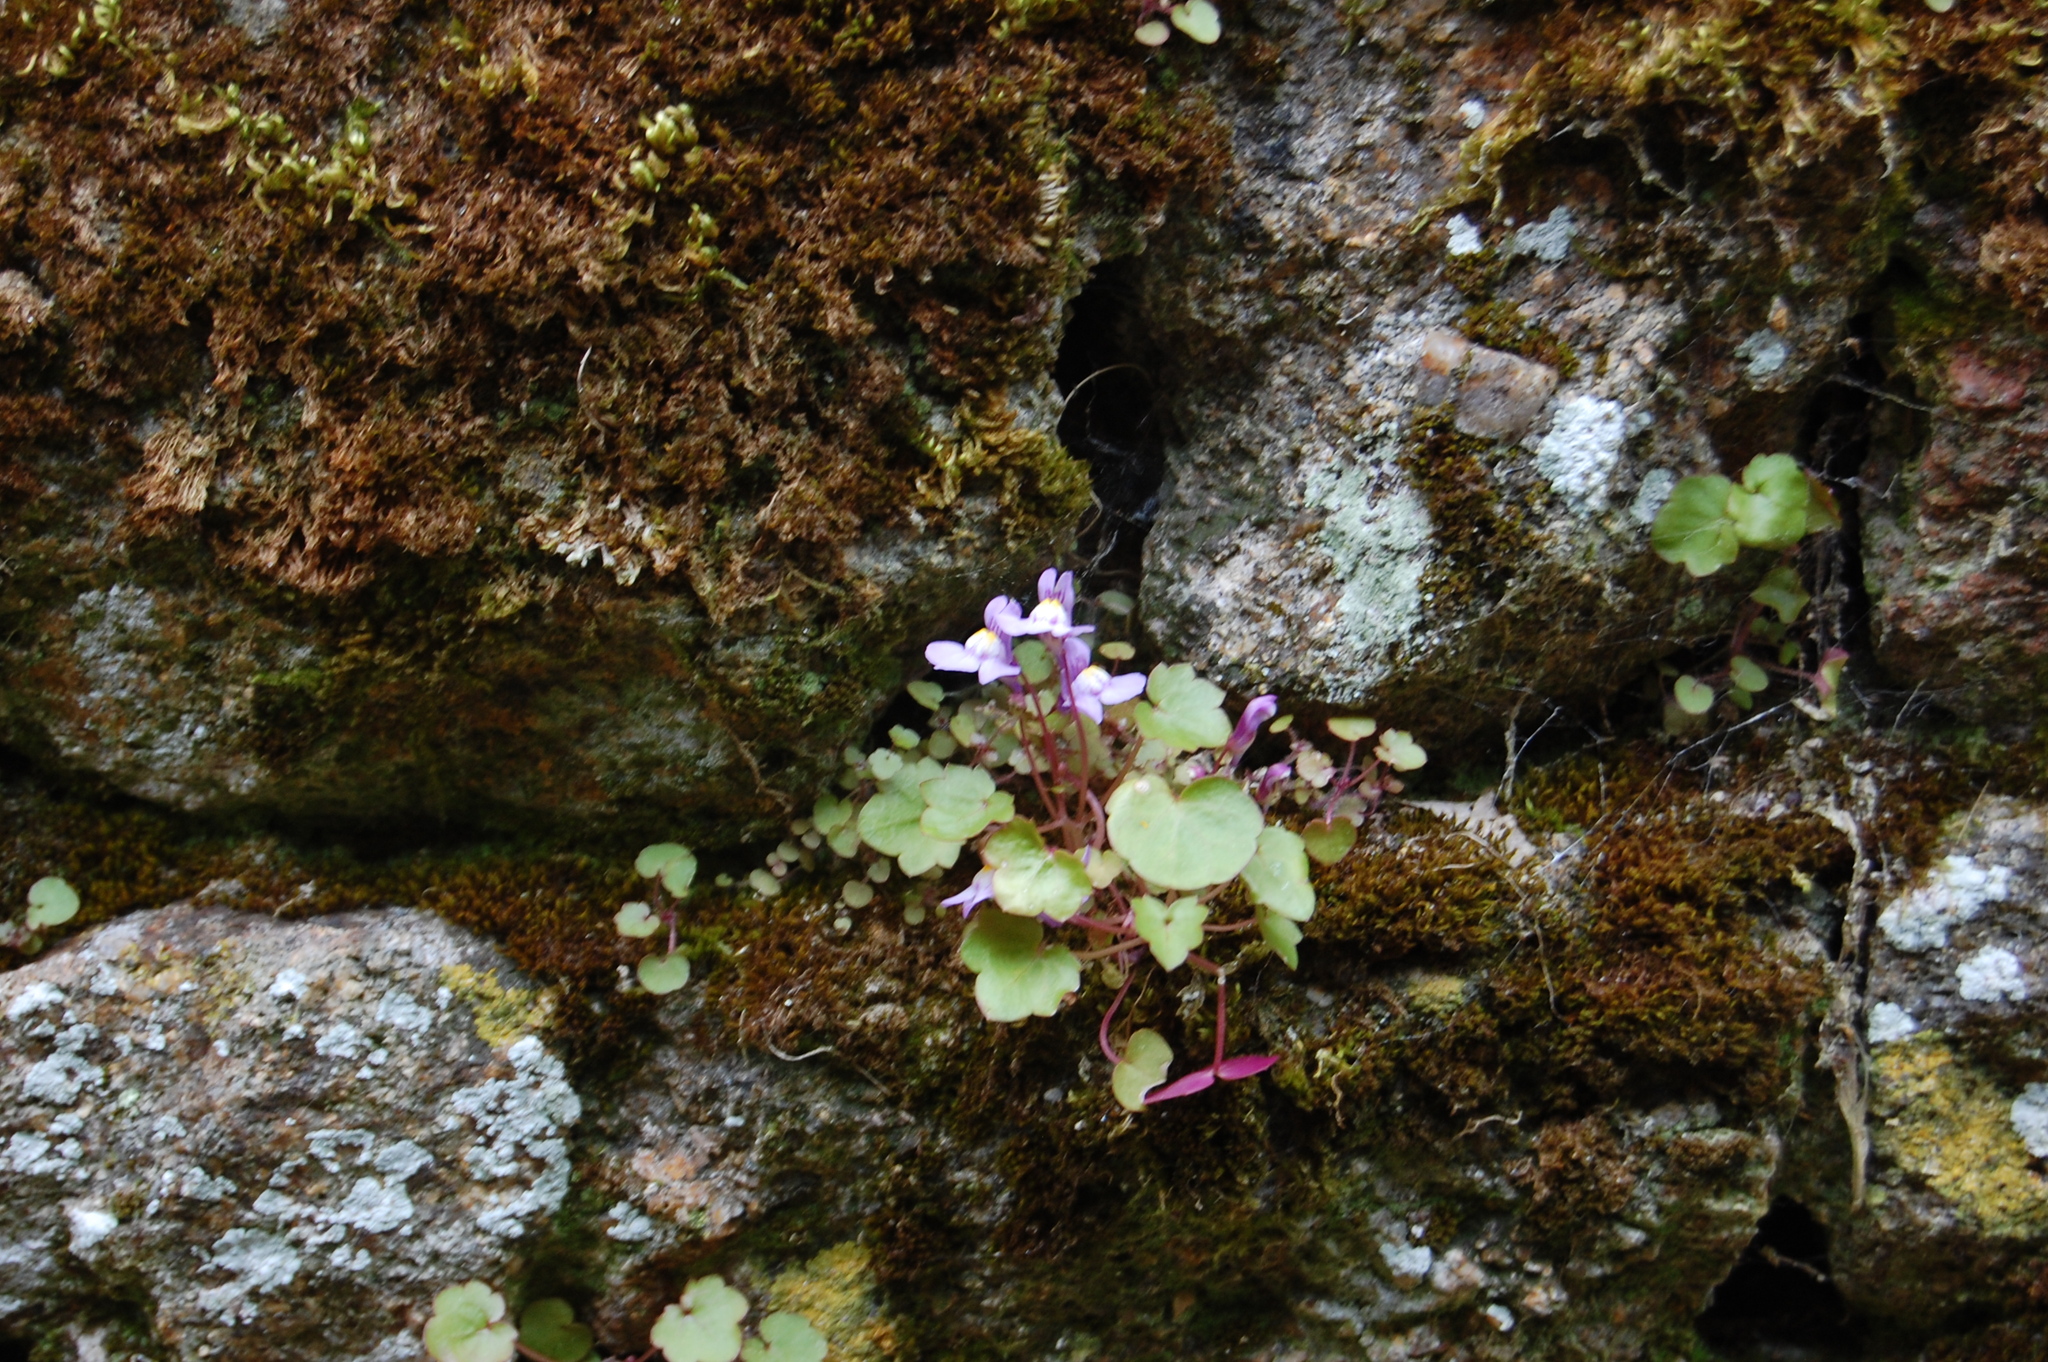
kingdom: Plantae
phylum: Tracheophyta
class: Magnoliopsida
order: Lamiales
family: Plantaginaceae
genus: Cymbalaria
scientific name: Cymbalaria muralis
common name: Ivy-leaved toadflax
